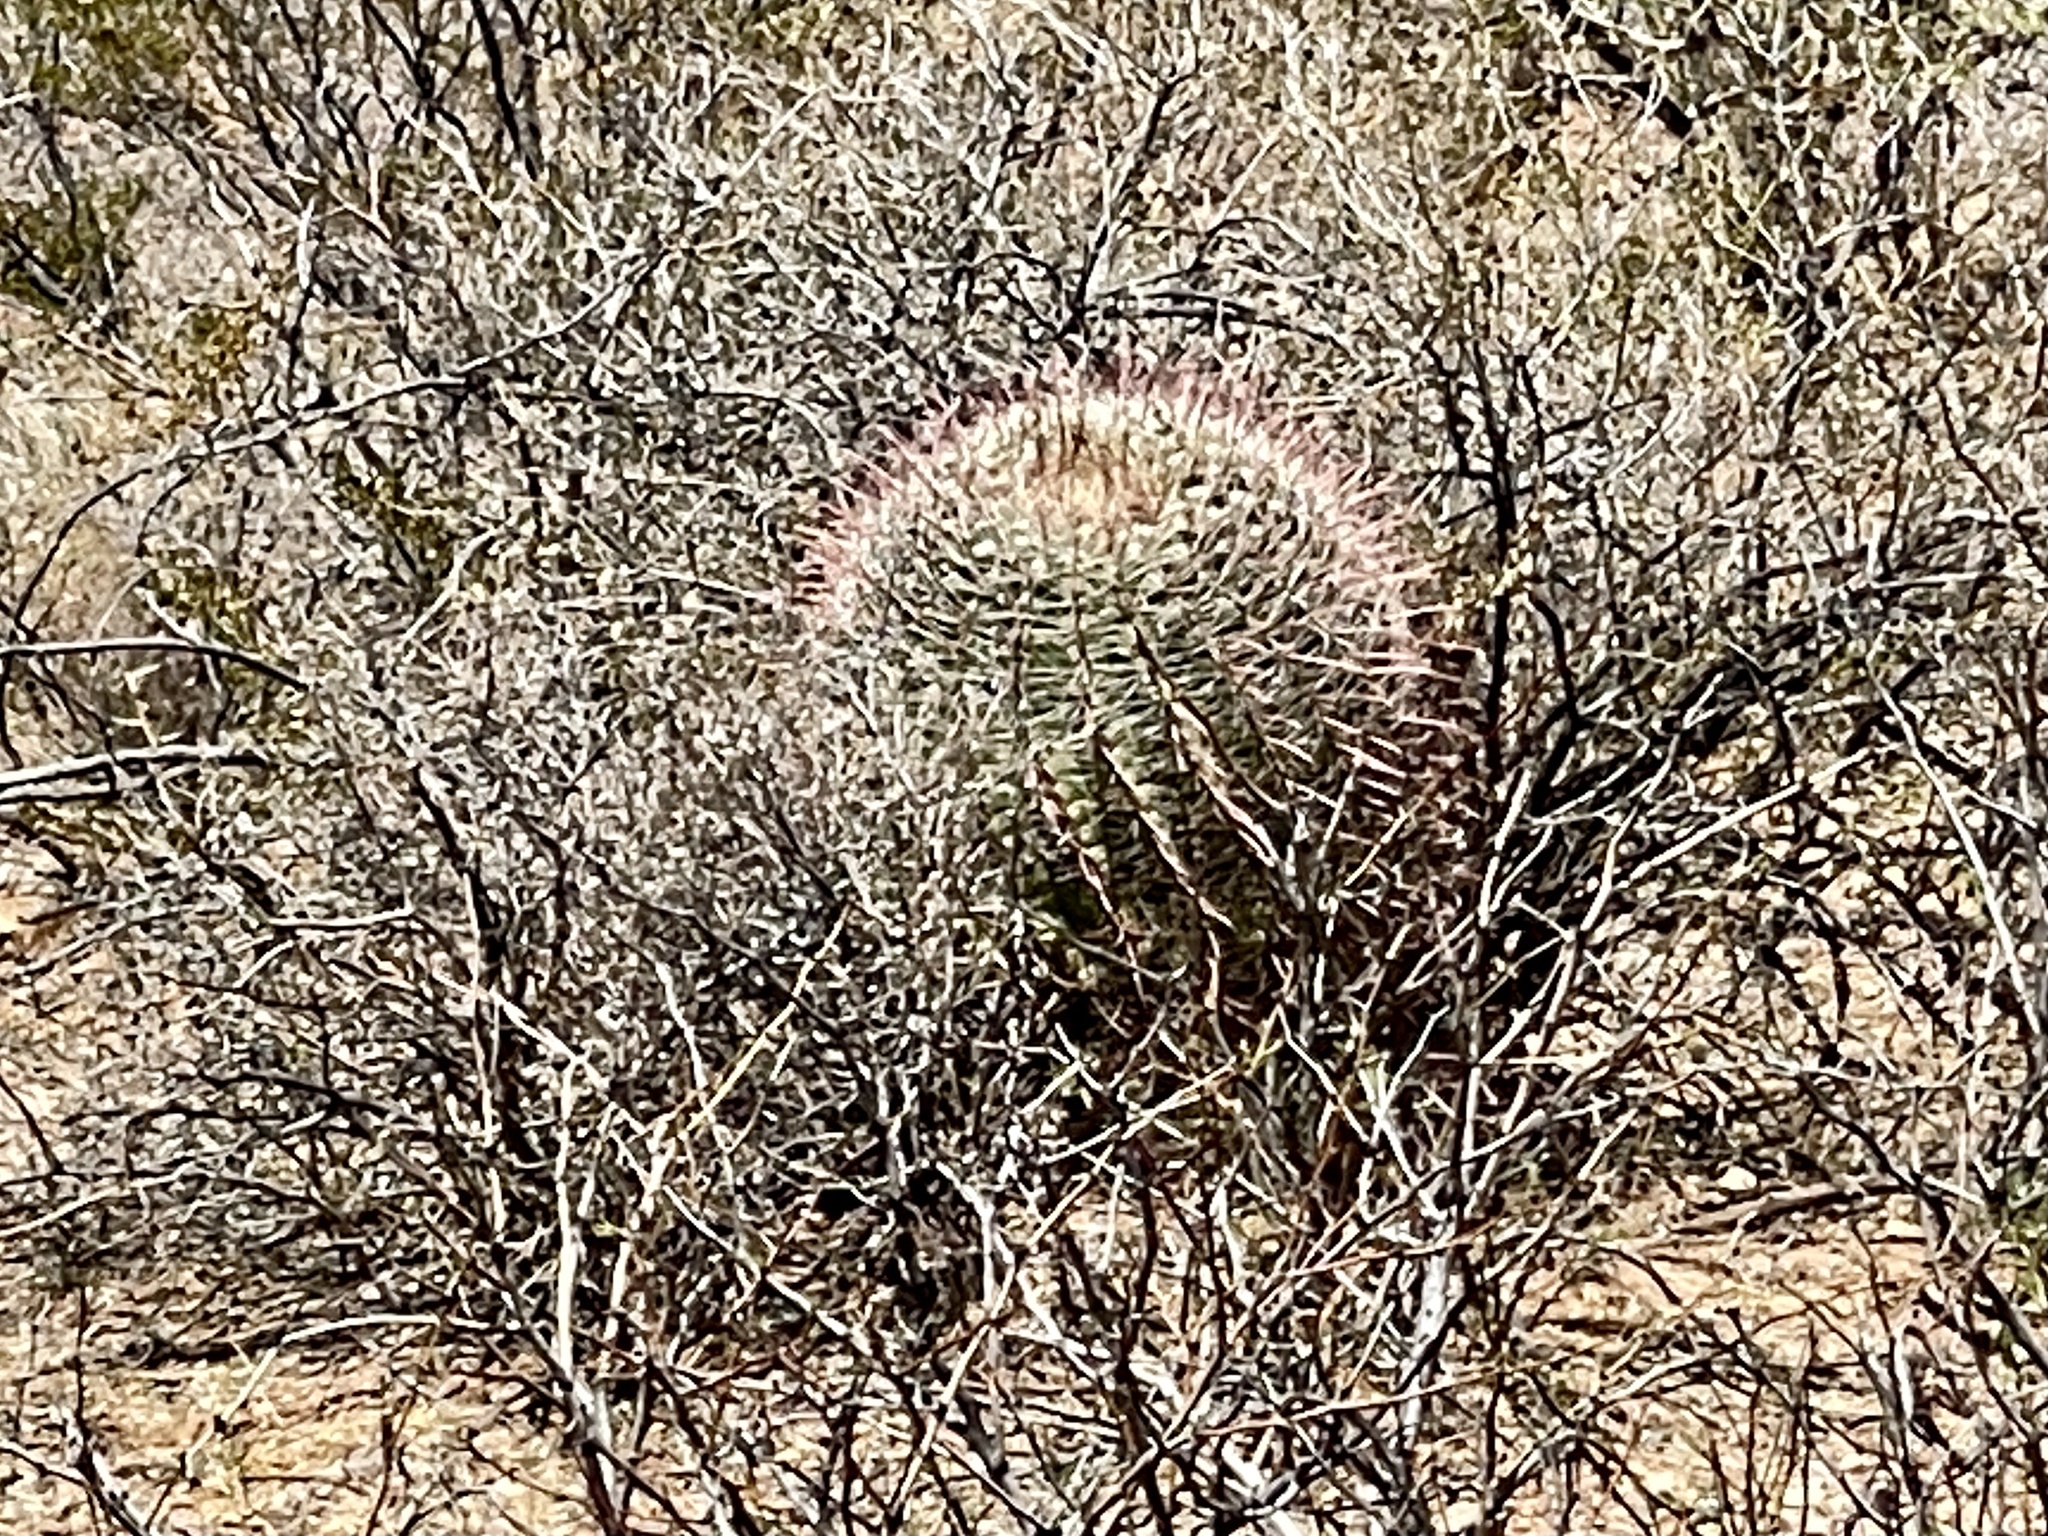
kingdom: Plantae
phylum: Tracheophyta
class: Magnoliopsida
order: Caryophyllales
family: Cactaceae
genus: Ferocactus
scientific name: Ferocactus wislizeni
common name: Candy barrel cactus
